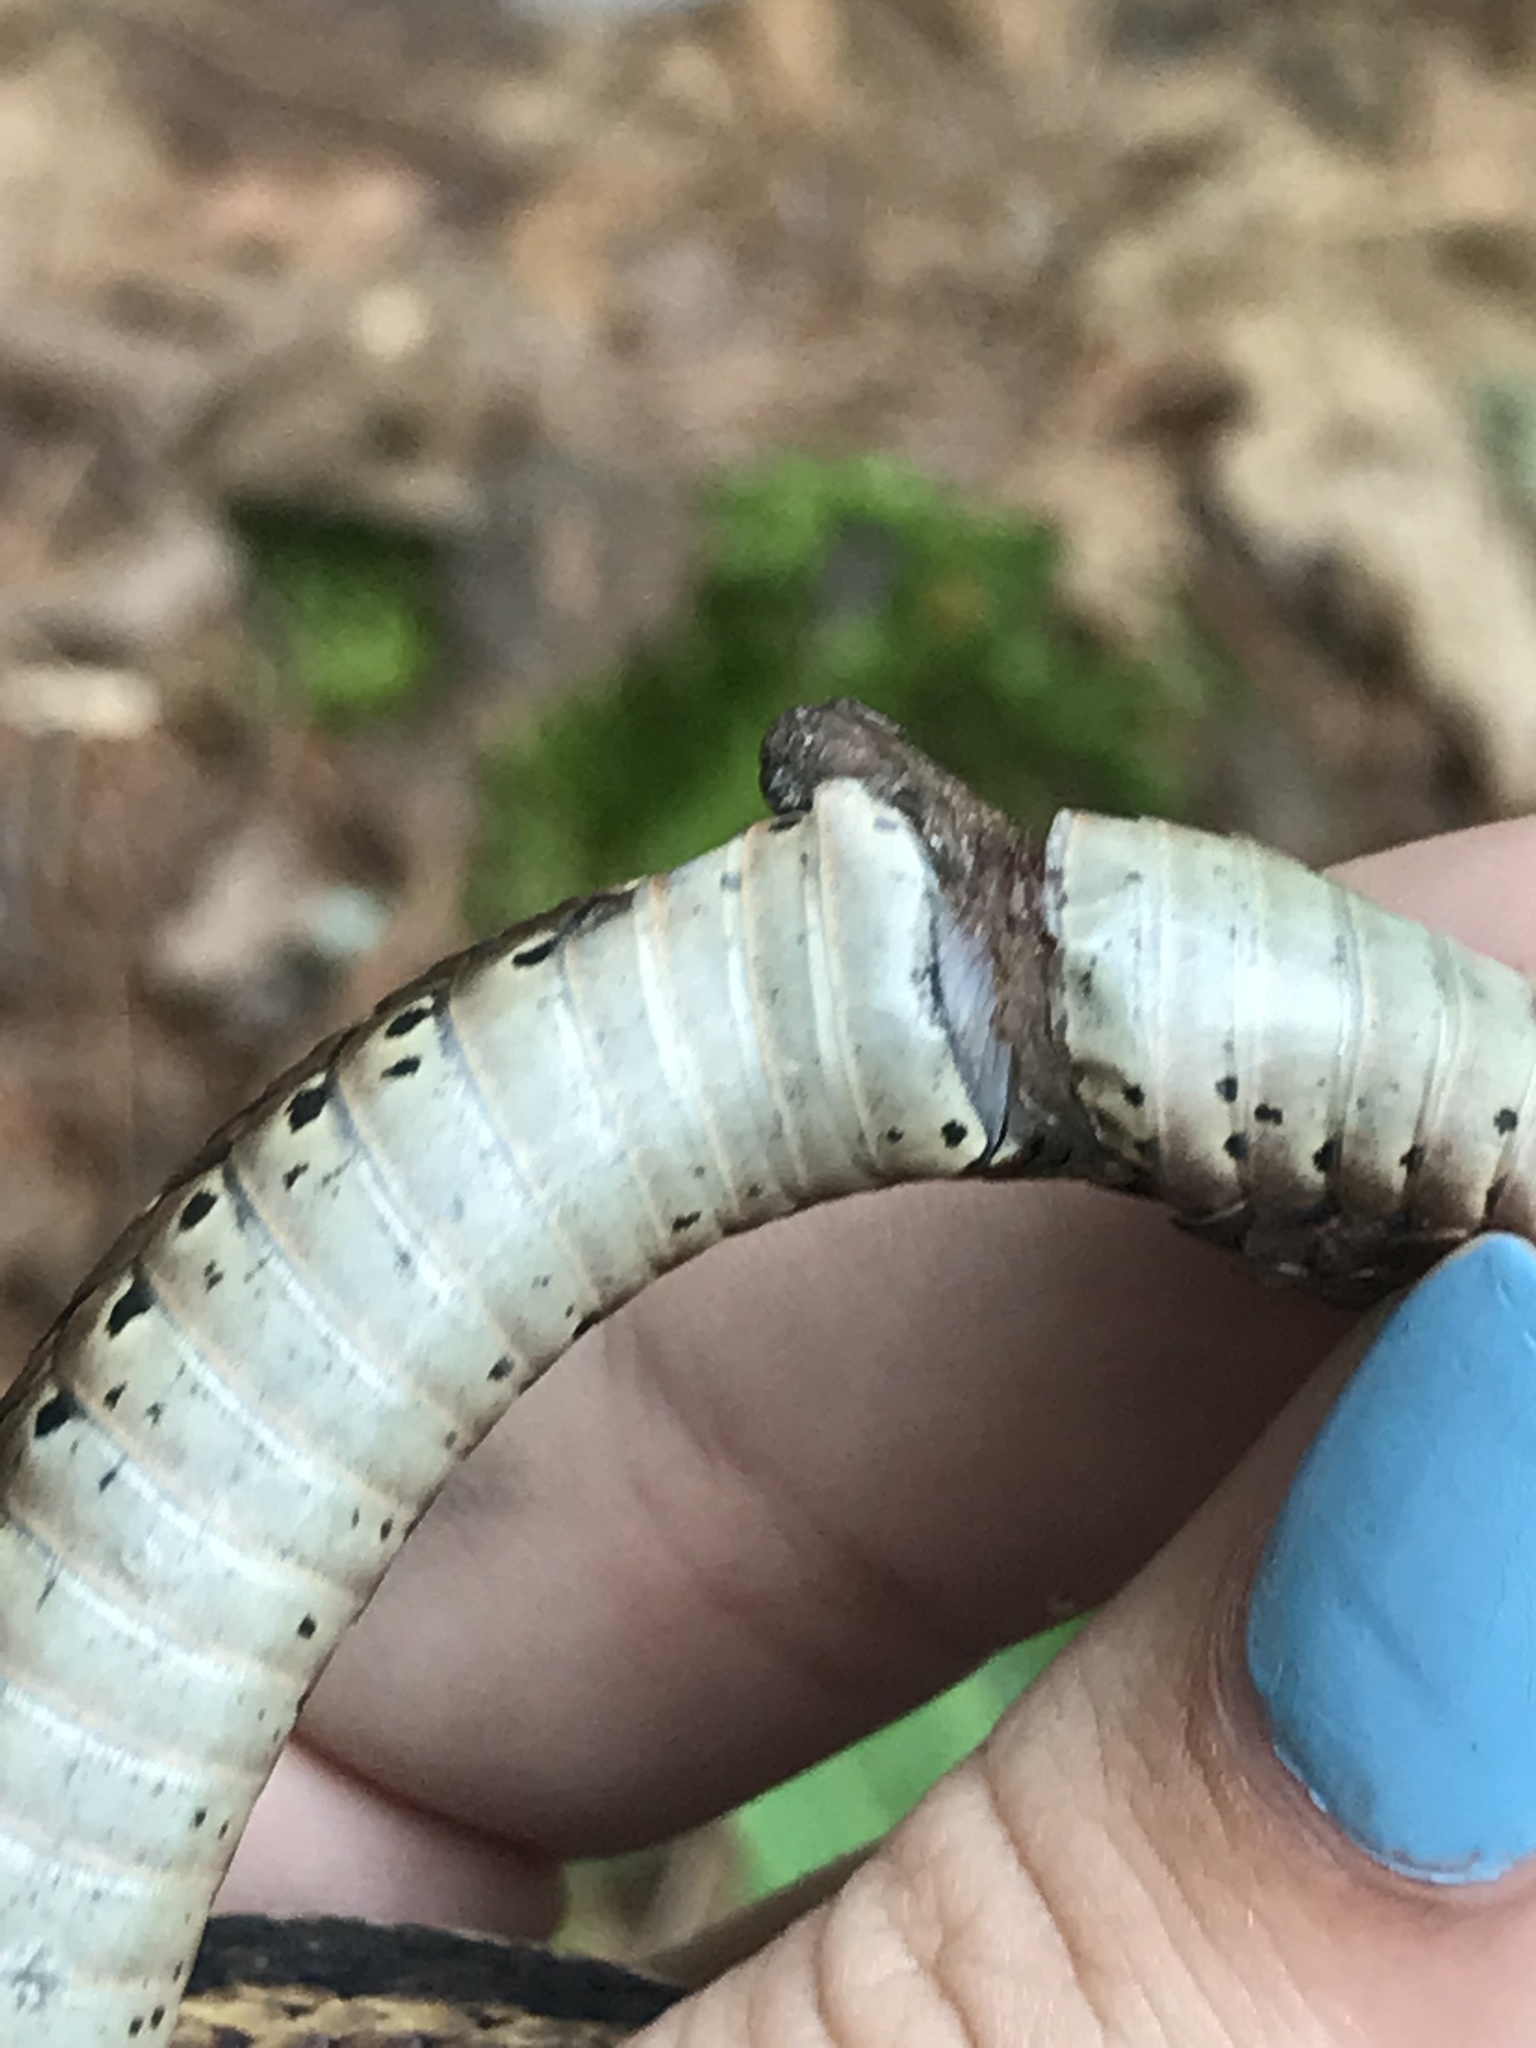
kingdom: Animalia
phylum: Chordata
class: Squamata
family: Colubridae
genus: Thamnophis
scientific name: Thamnophis sirtalis
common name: Common garter snake
